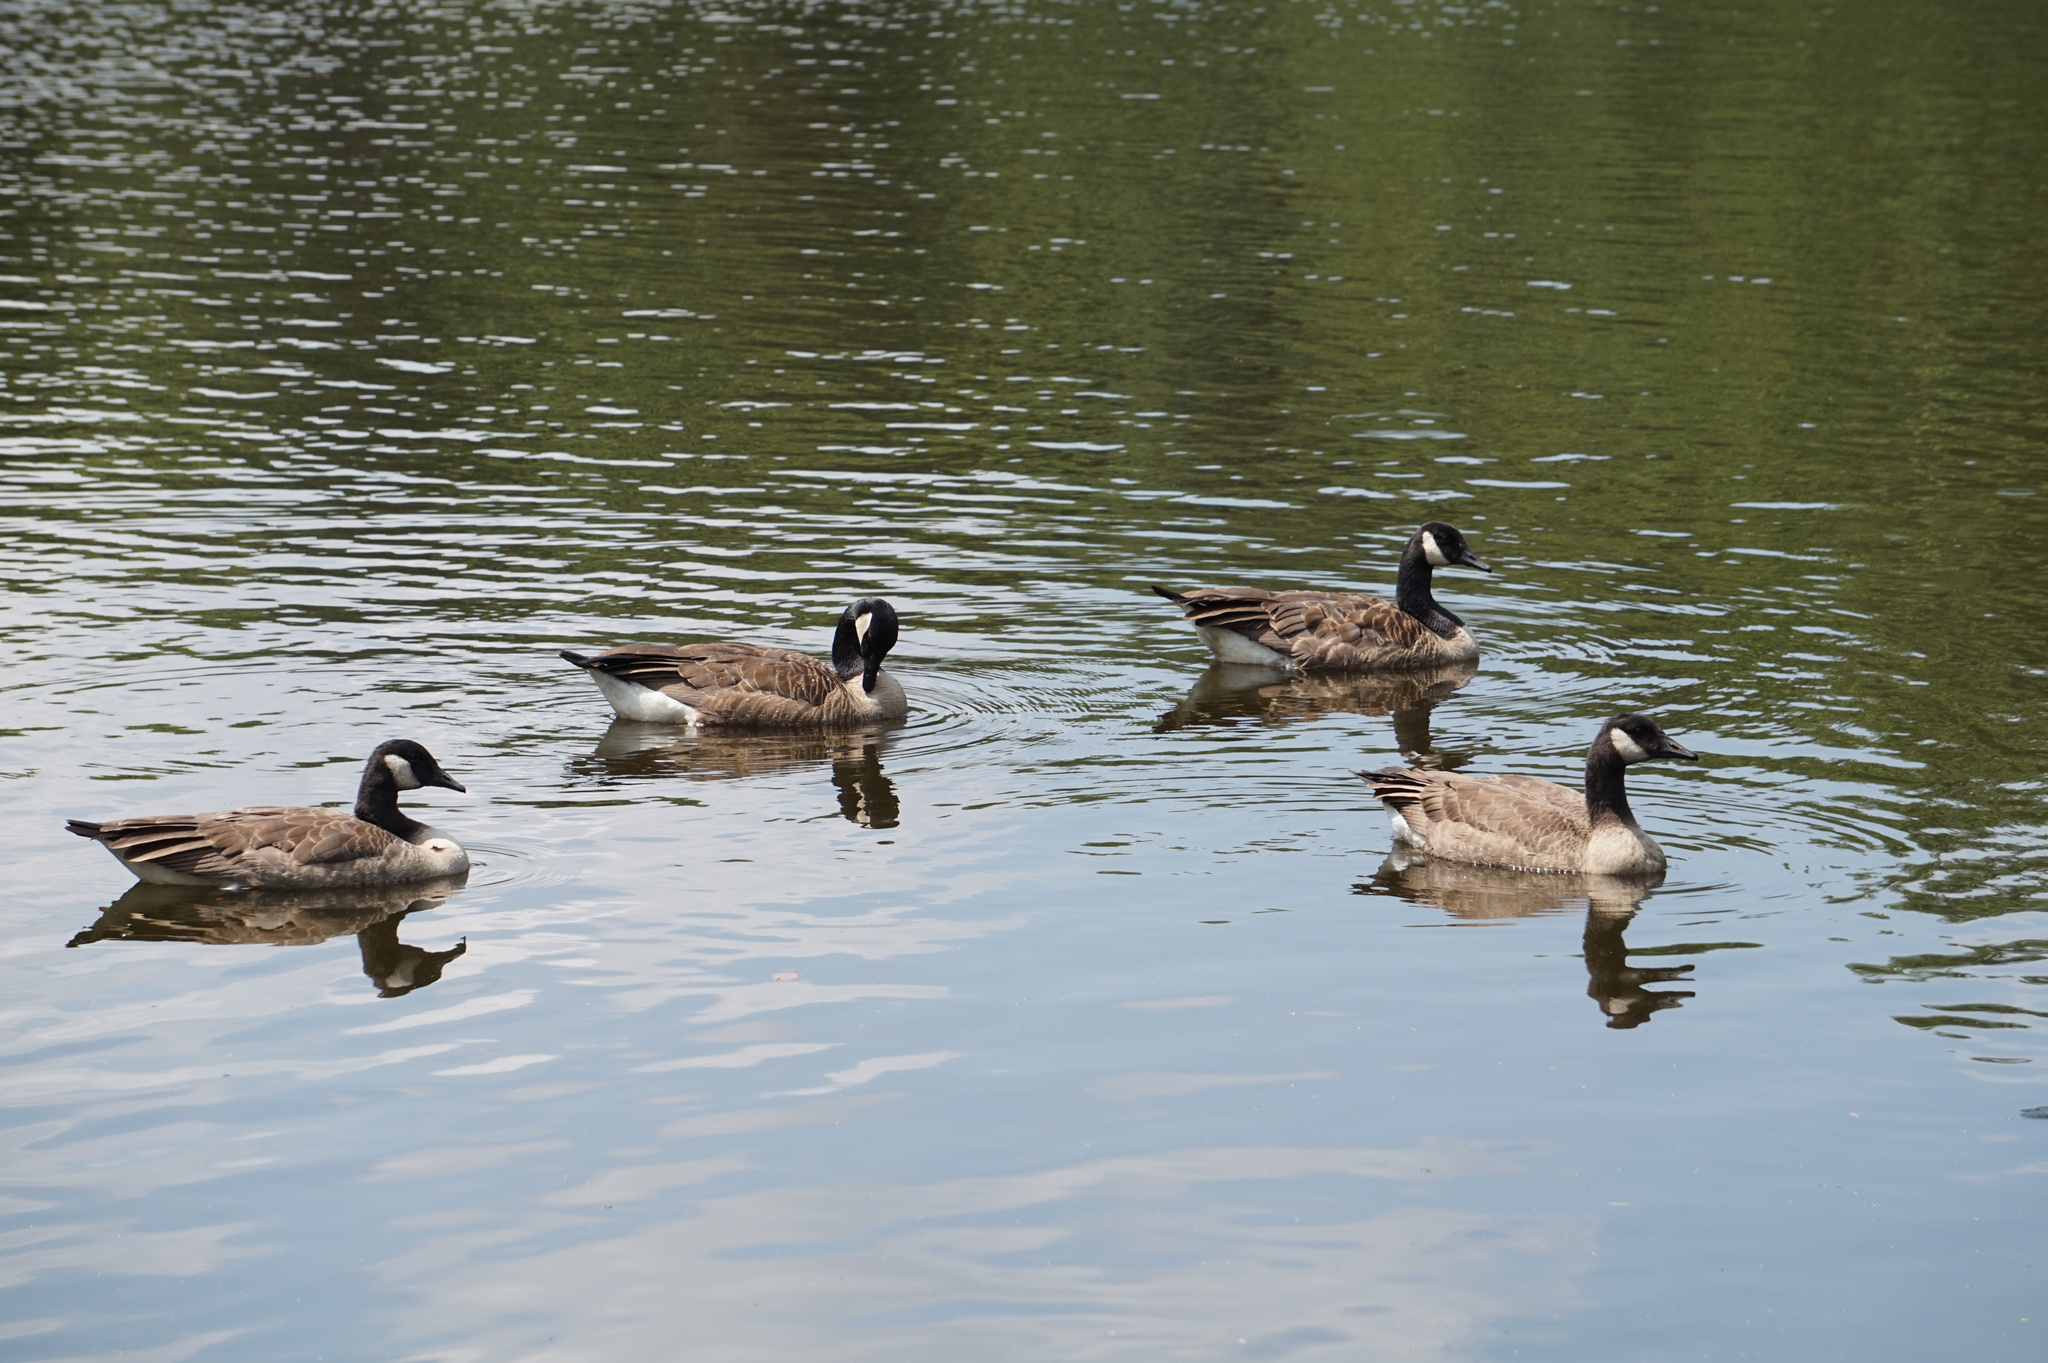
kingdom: Animalia
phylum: Chordata
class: Aves
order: Anseriformes
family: Anatidae
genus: Branta
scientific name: Branta canadensis
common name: Canada goose
